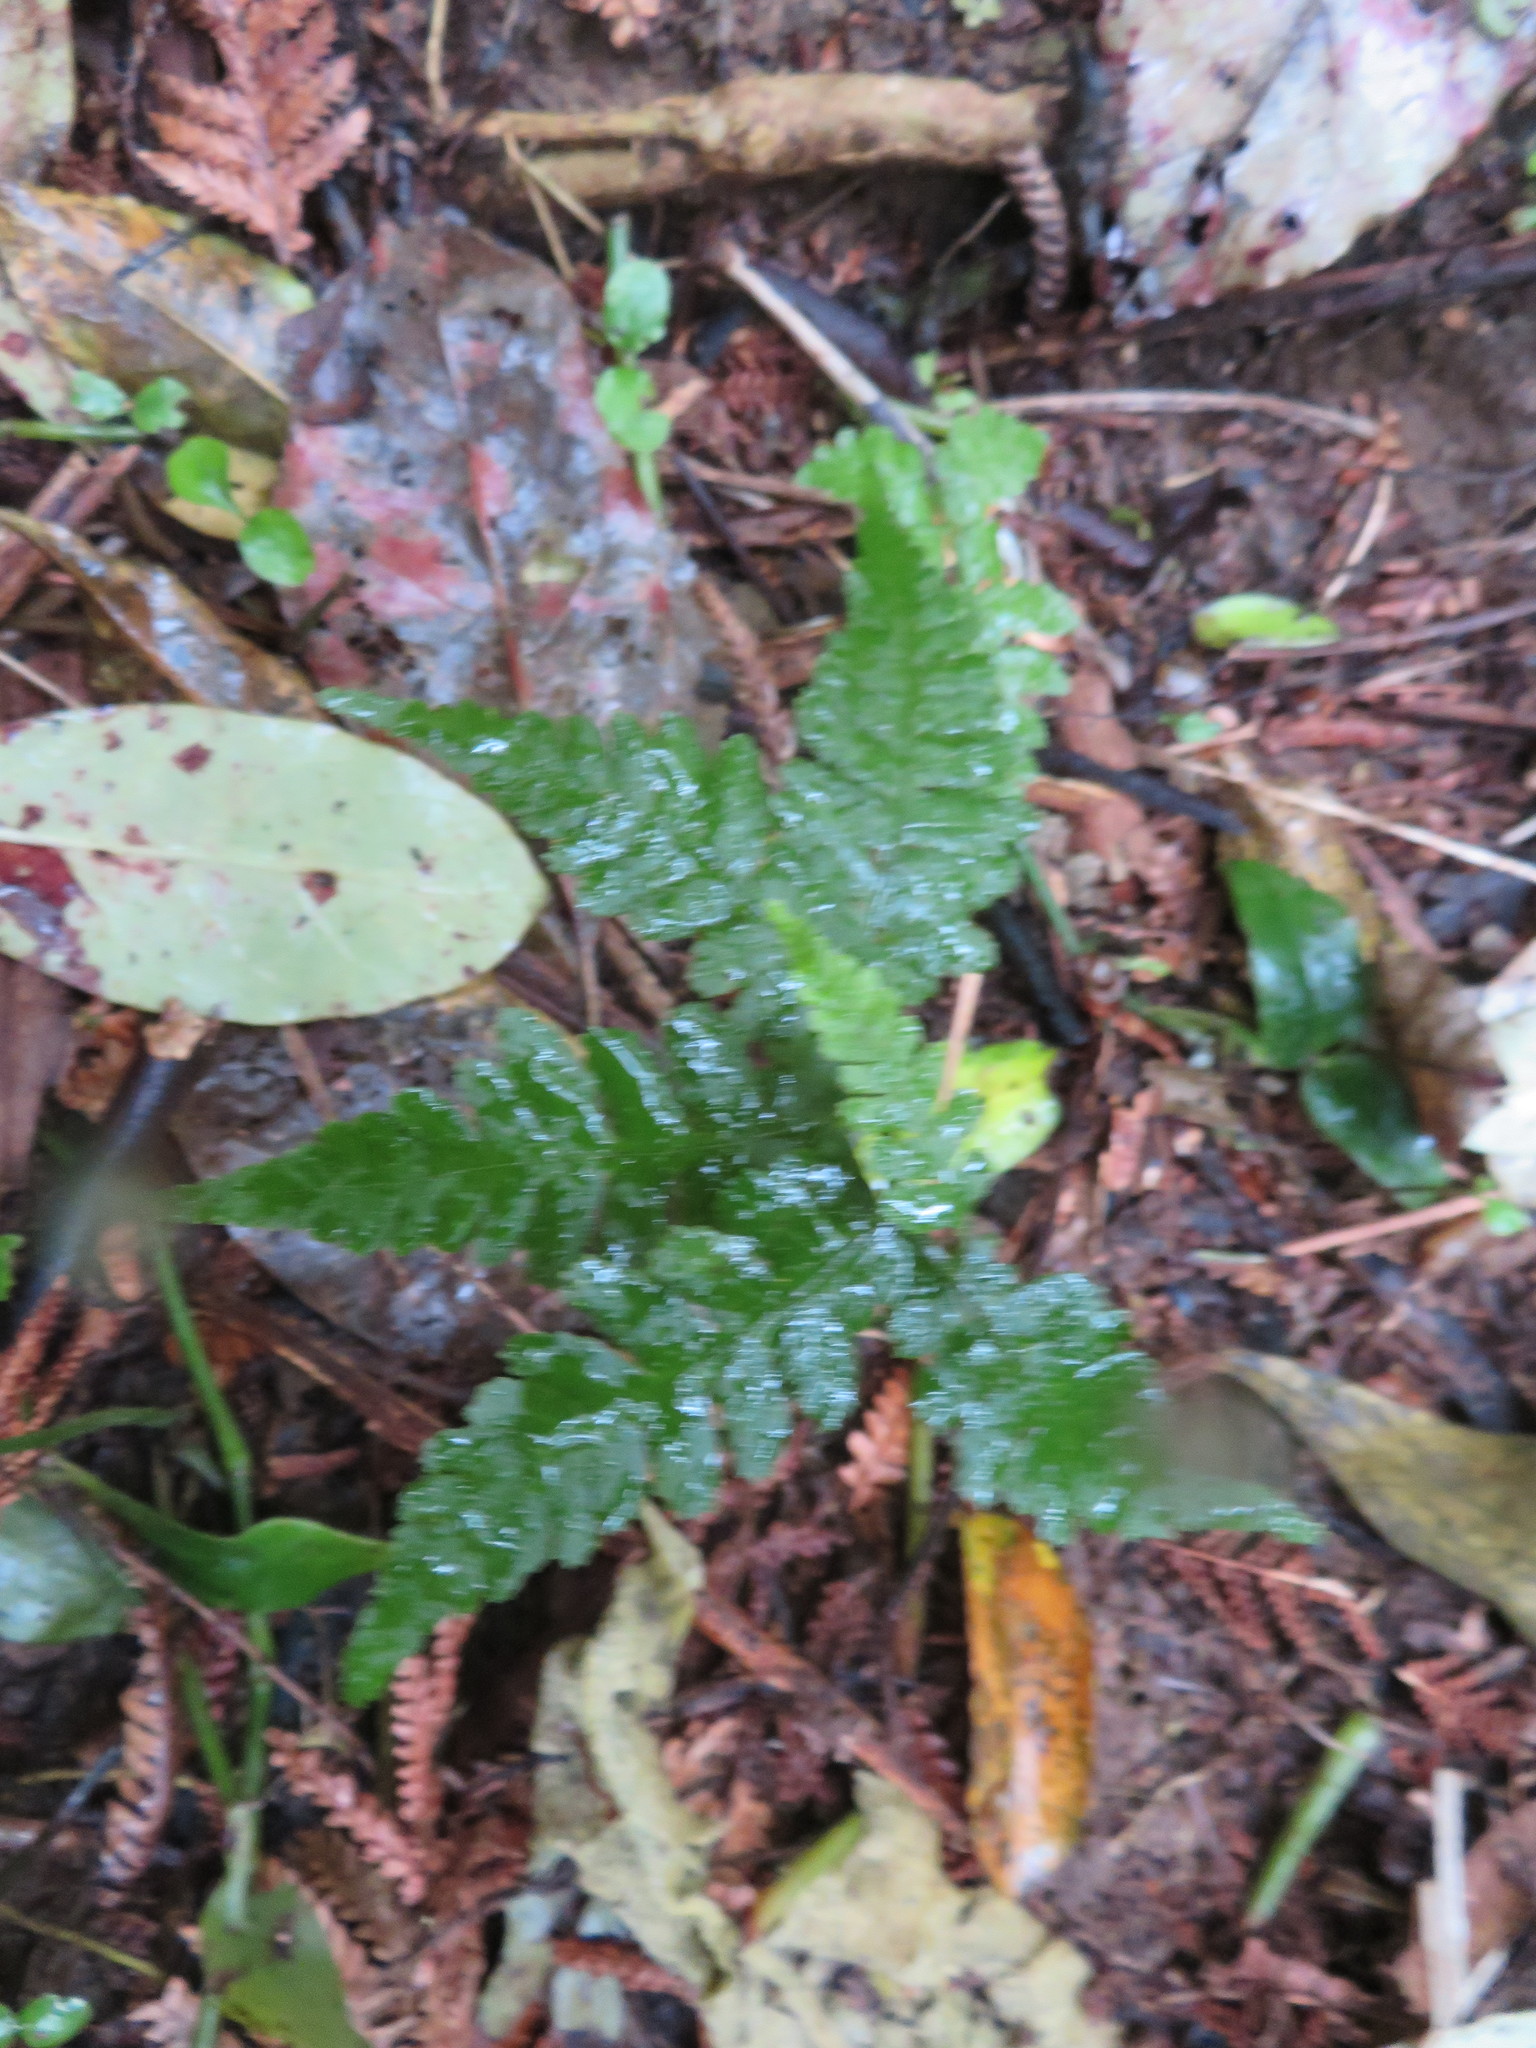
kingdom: Plantae
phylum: Tracheophyta
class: Magnoliopsida
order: Lamiales
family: Oleaceae
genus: Ligustrum
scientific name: Ligustrum lucidum
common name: Glossy privet
